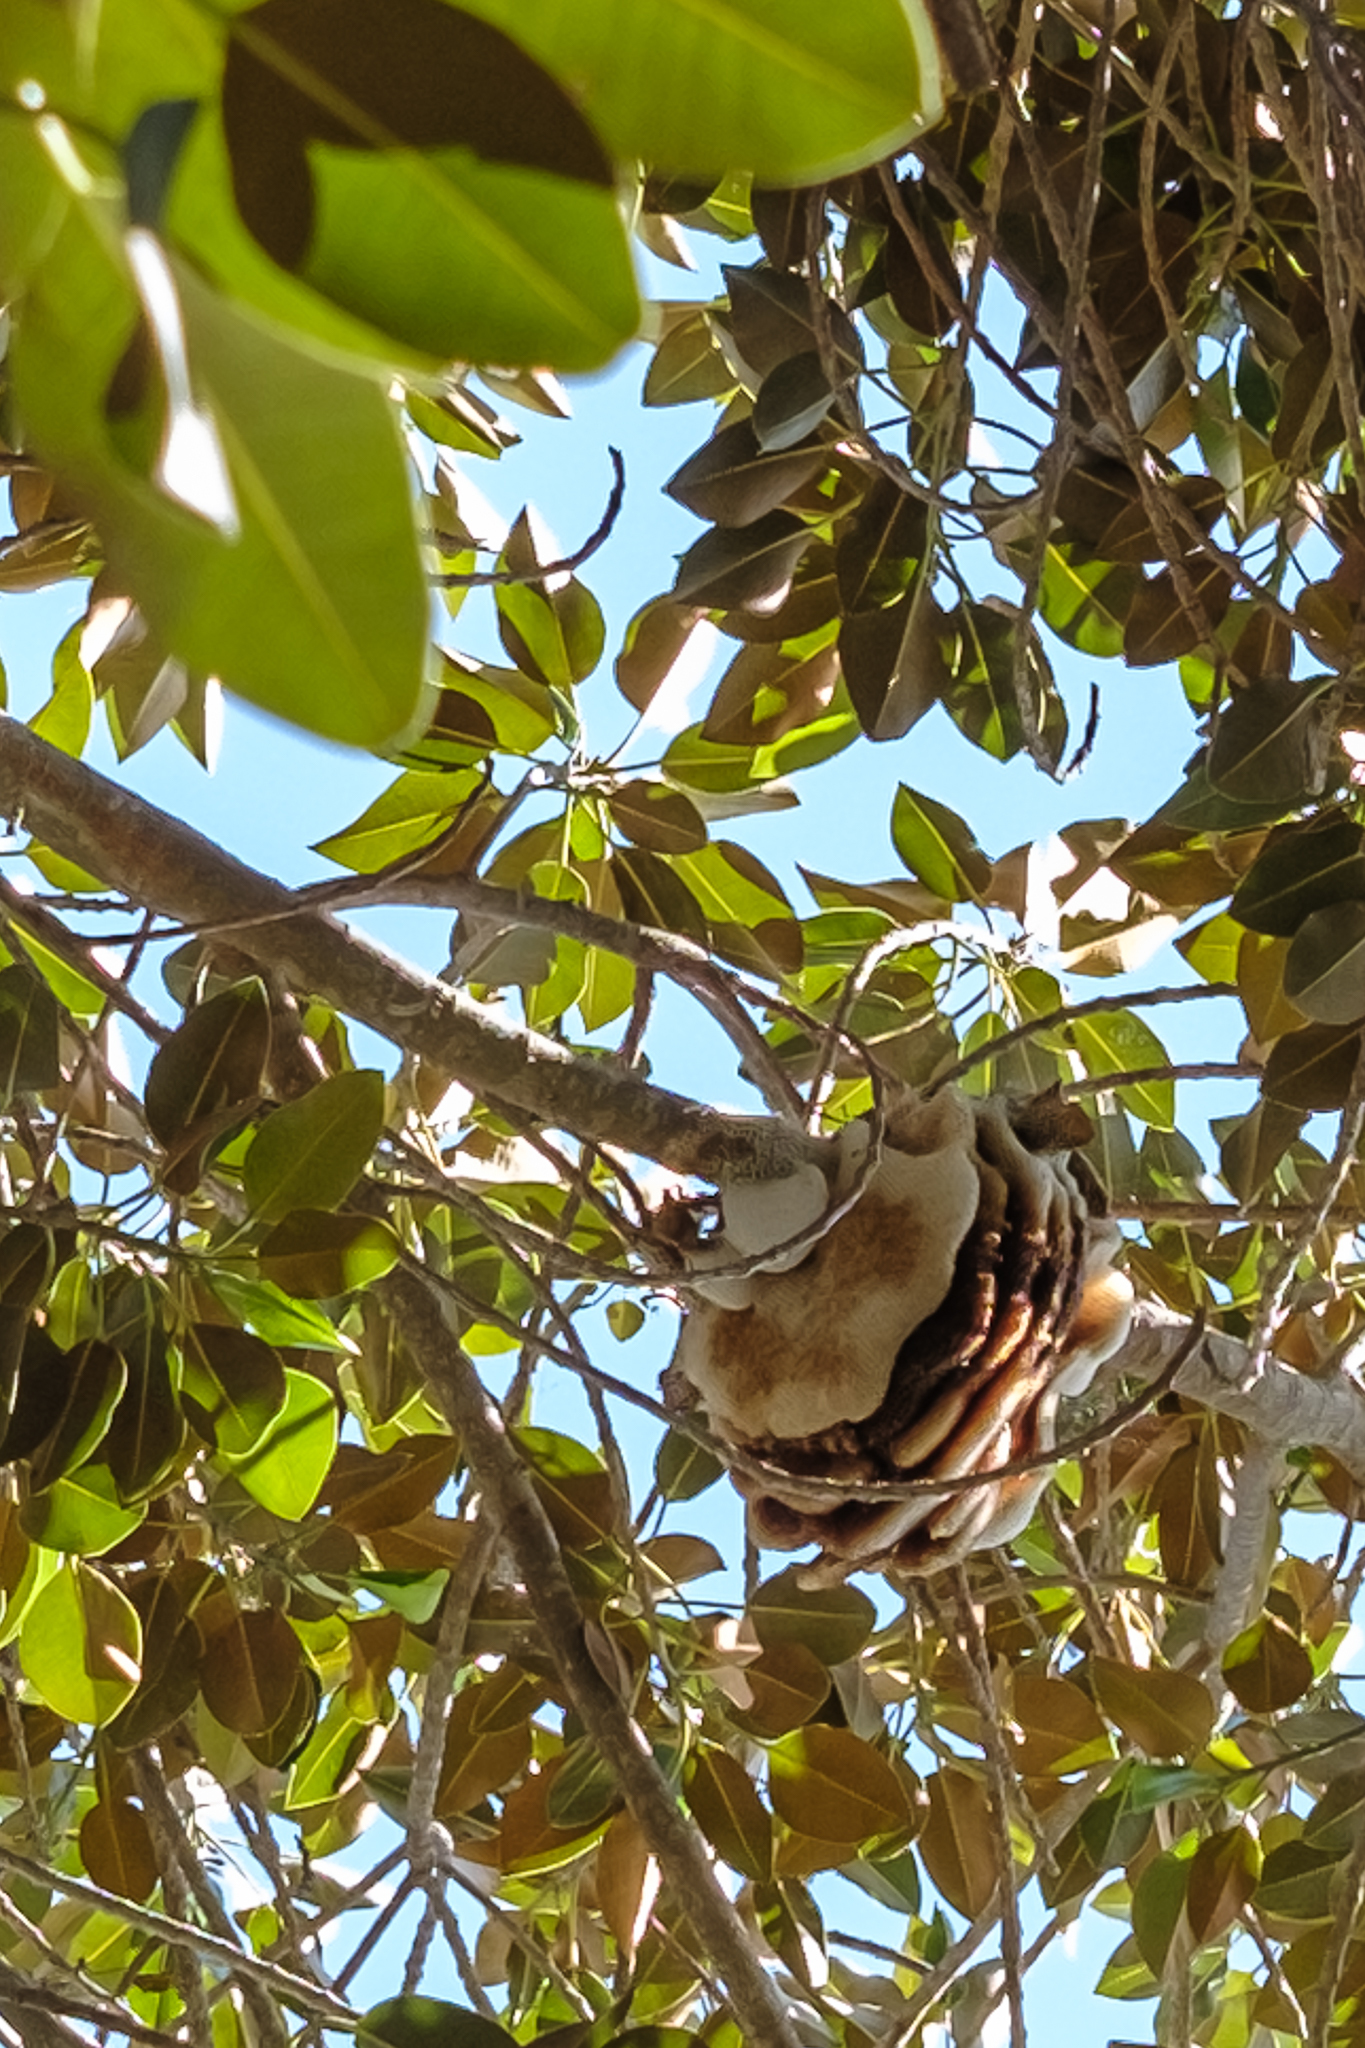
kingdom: Animalia
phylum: Arthropoda
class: Insecta
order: Hymenoptera
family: Apidae
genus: Apis
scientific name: Apis mellifera
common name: Honey bee
